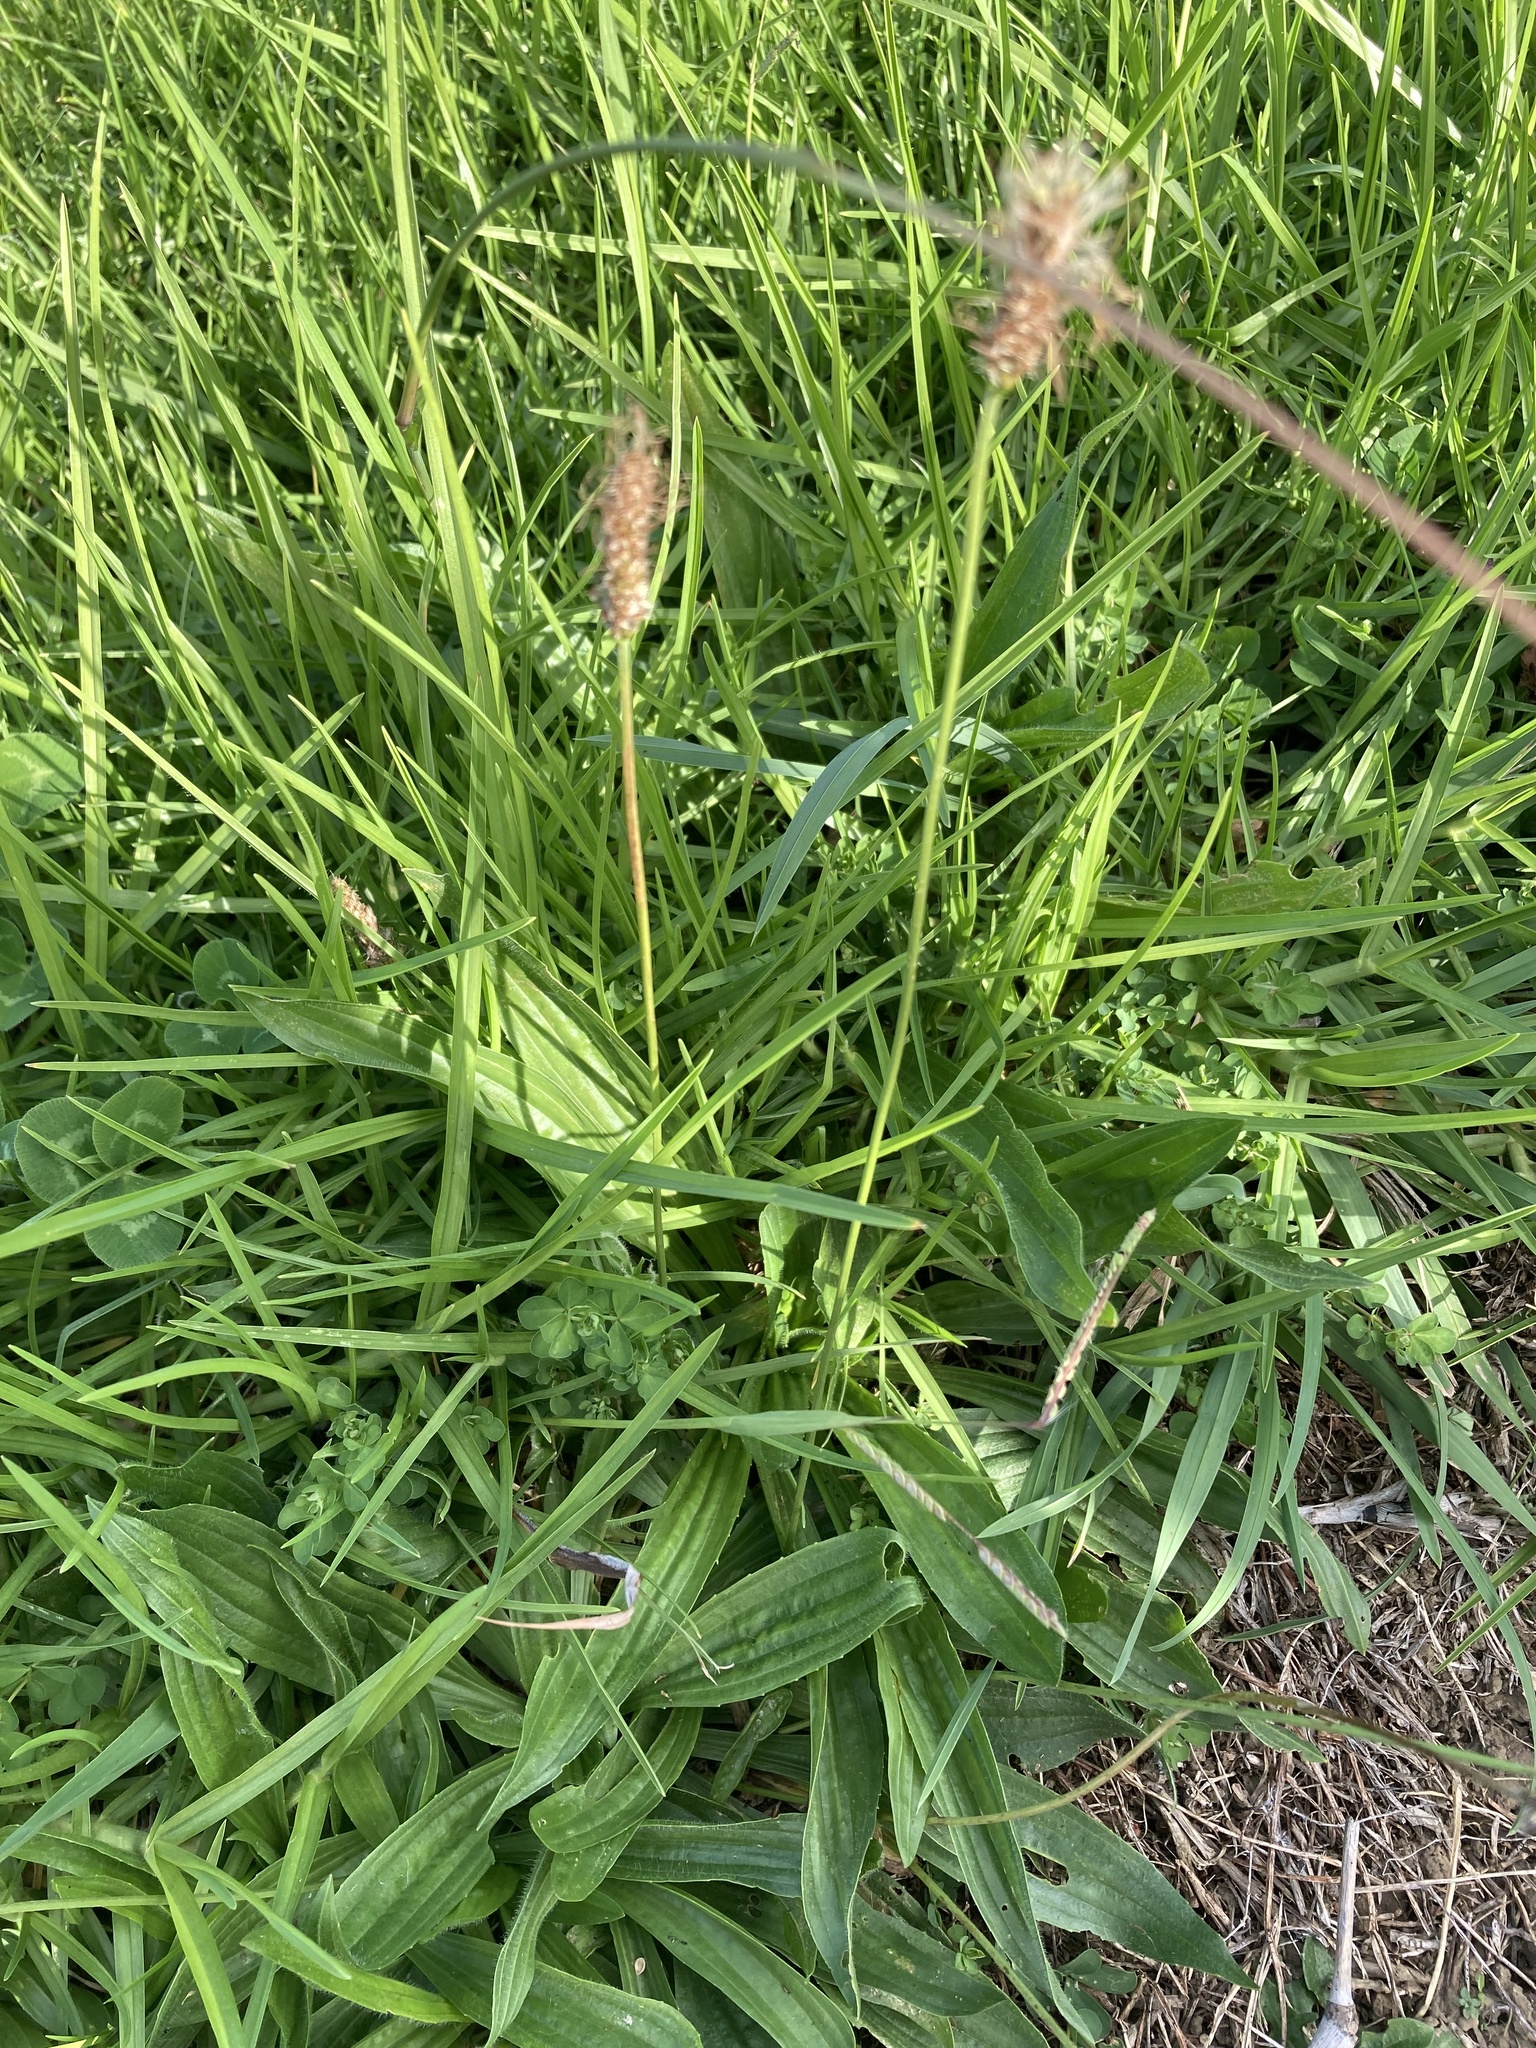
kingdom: Plantae
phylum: Tracheophyta
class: Magnoliopsida
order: Lamiales
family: Plantaginaceae
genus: Plantago
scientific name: Plantago lanceolata
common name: Ribwort plantain
